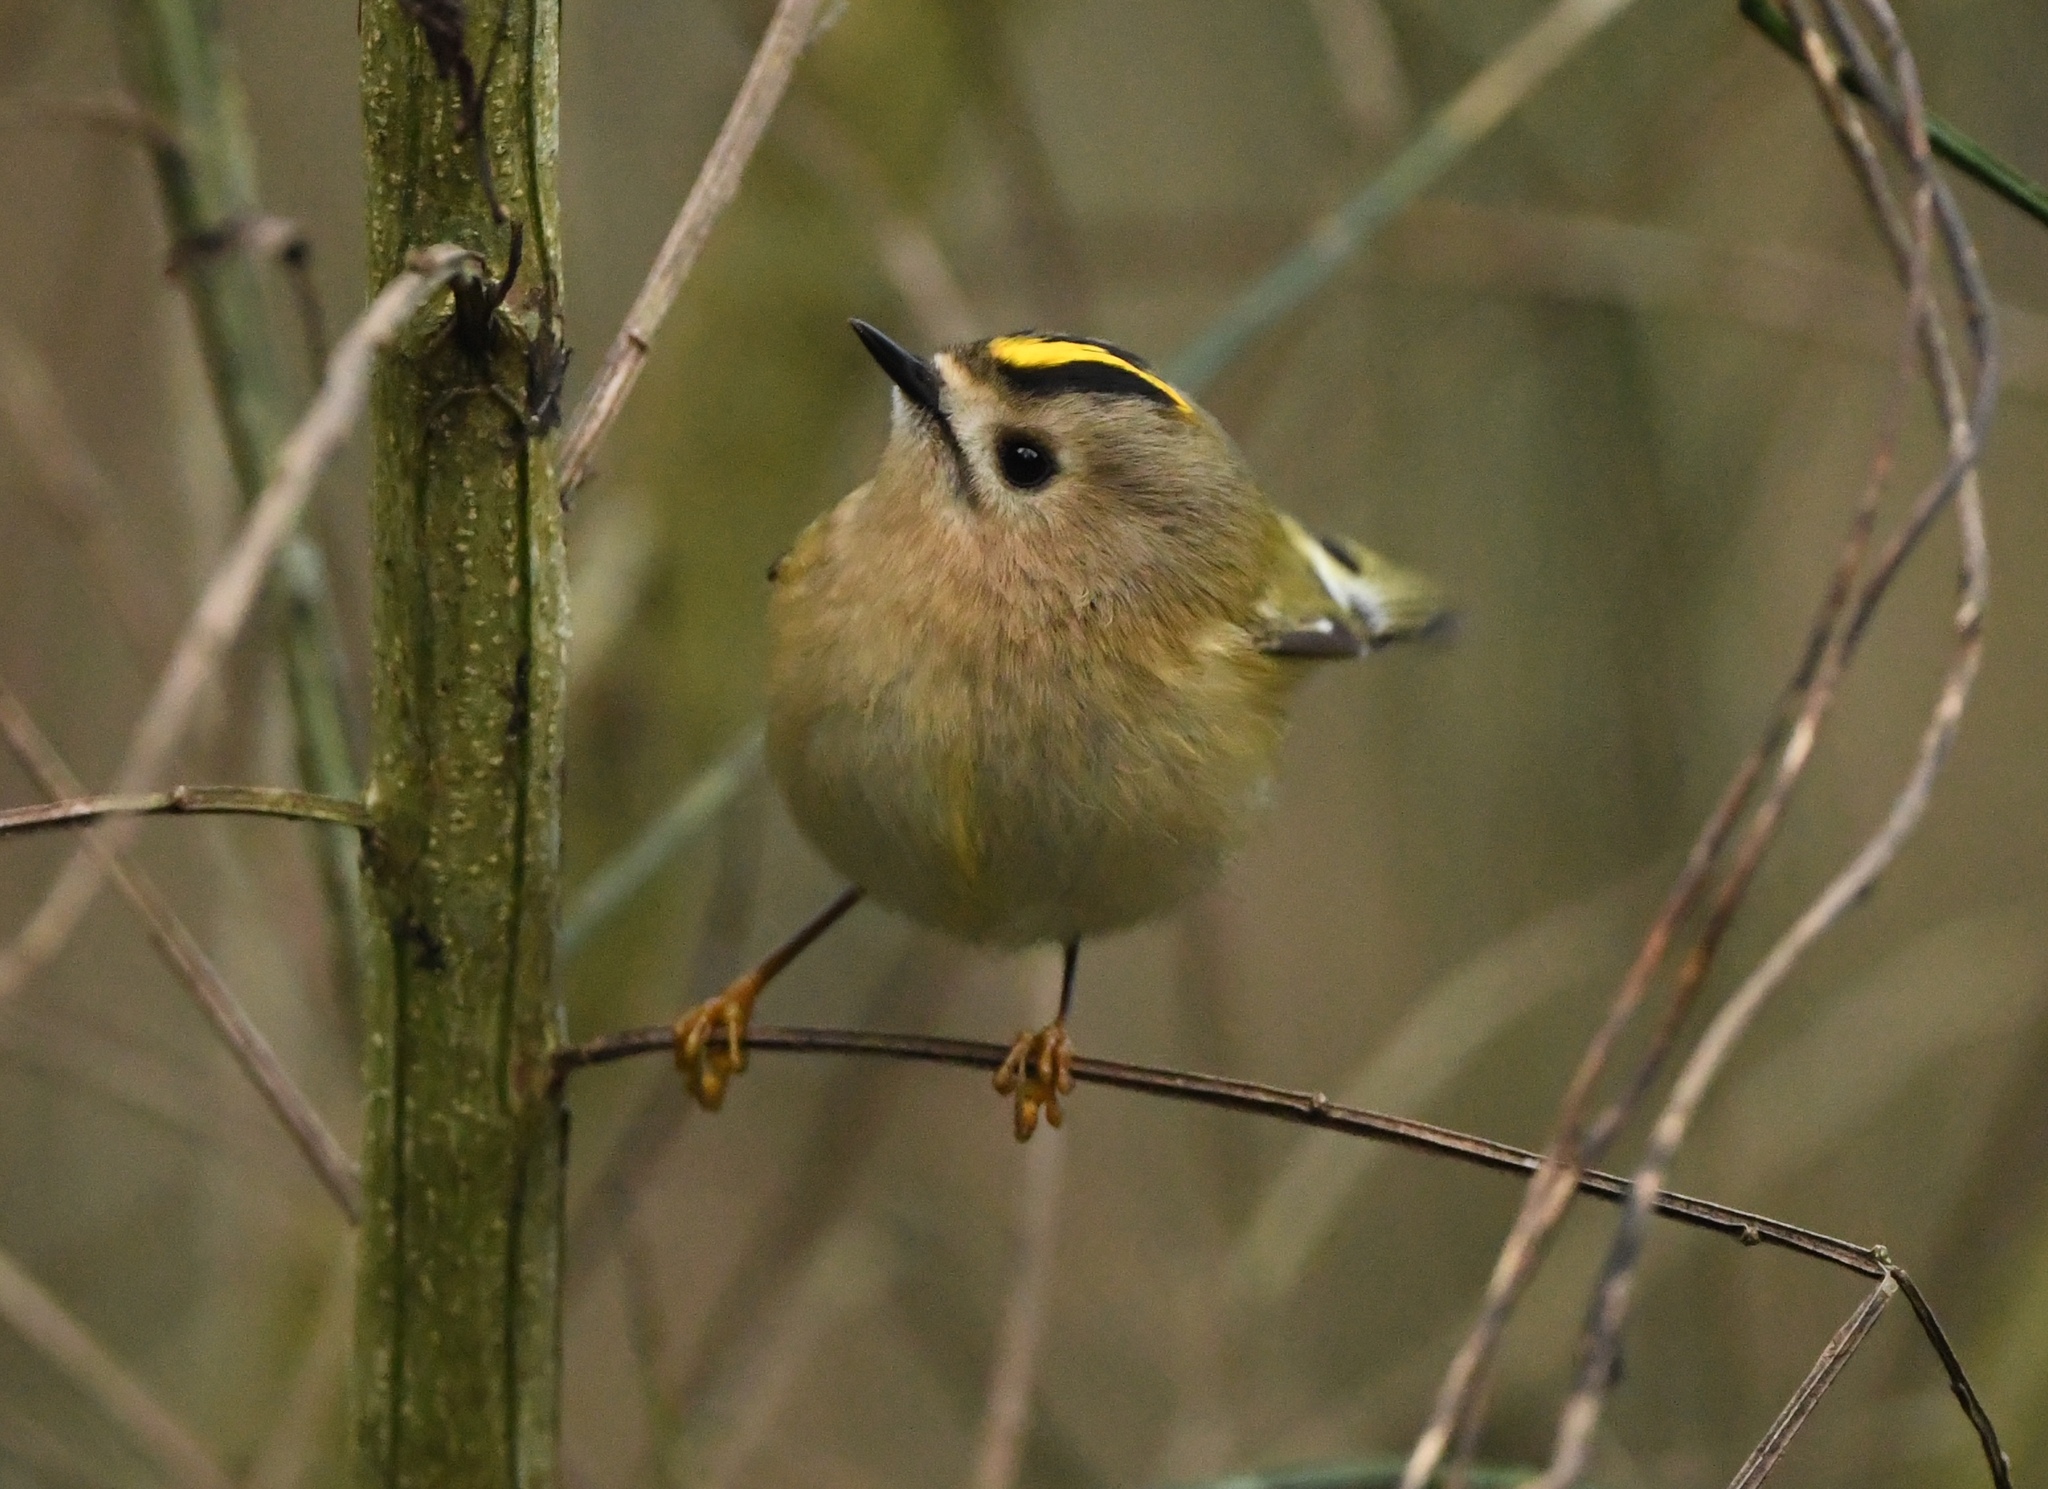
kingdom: Animalia
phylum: Chordata
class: Aves
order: Passeriformes
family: Regulidae
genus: Regulus
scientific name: Regulus regulus
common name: Goldcrest
